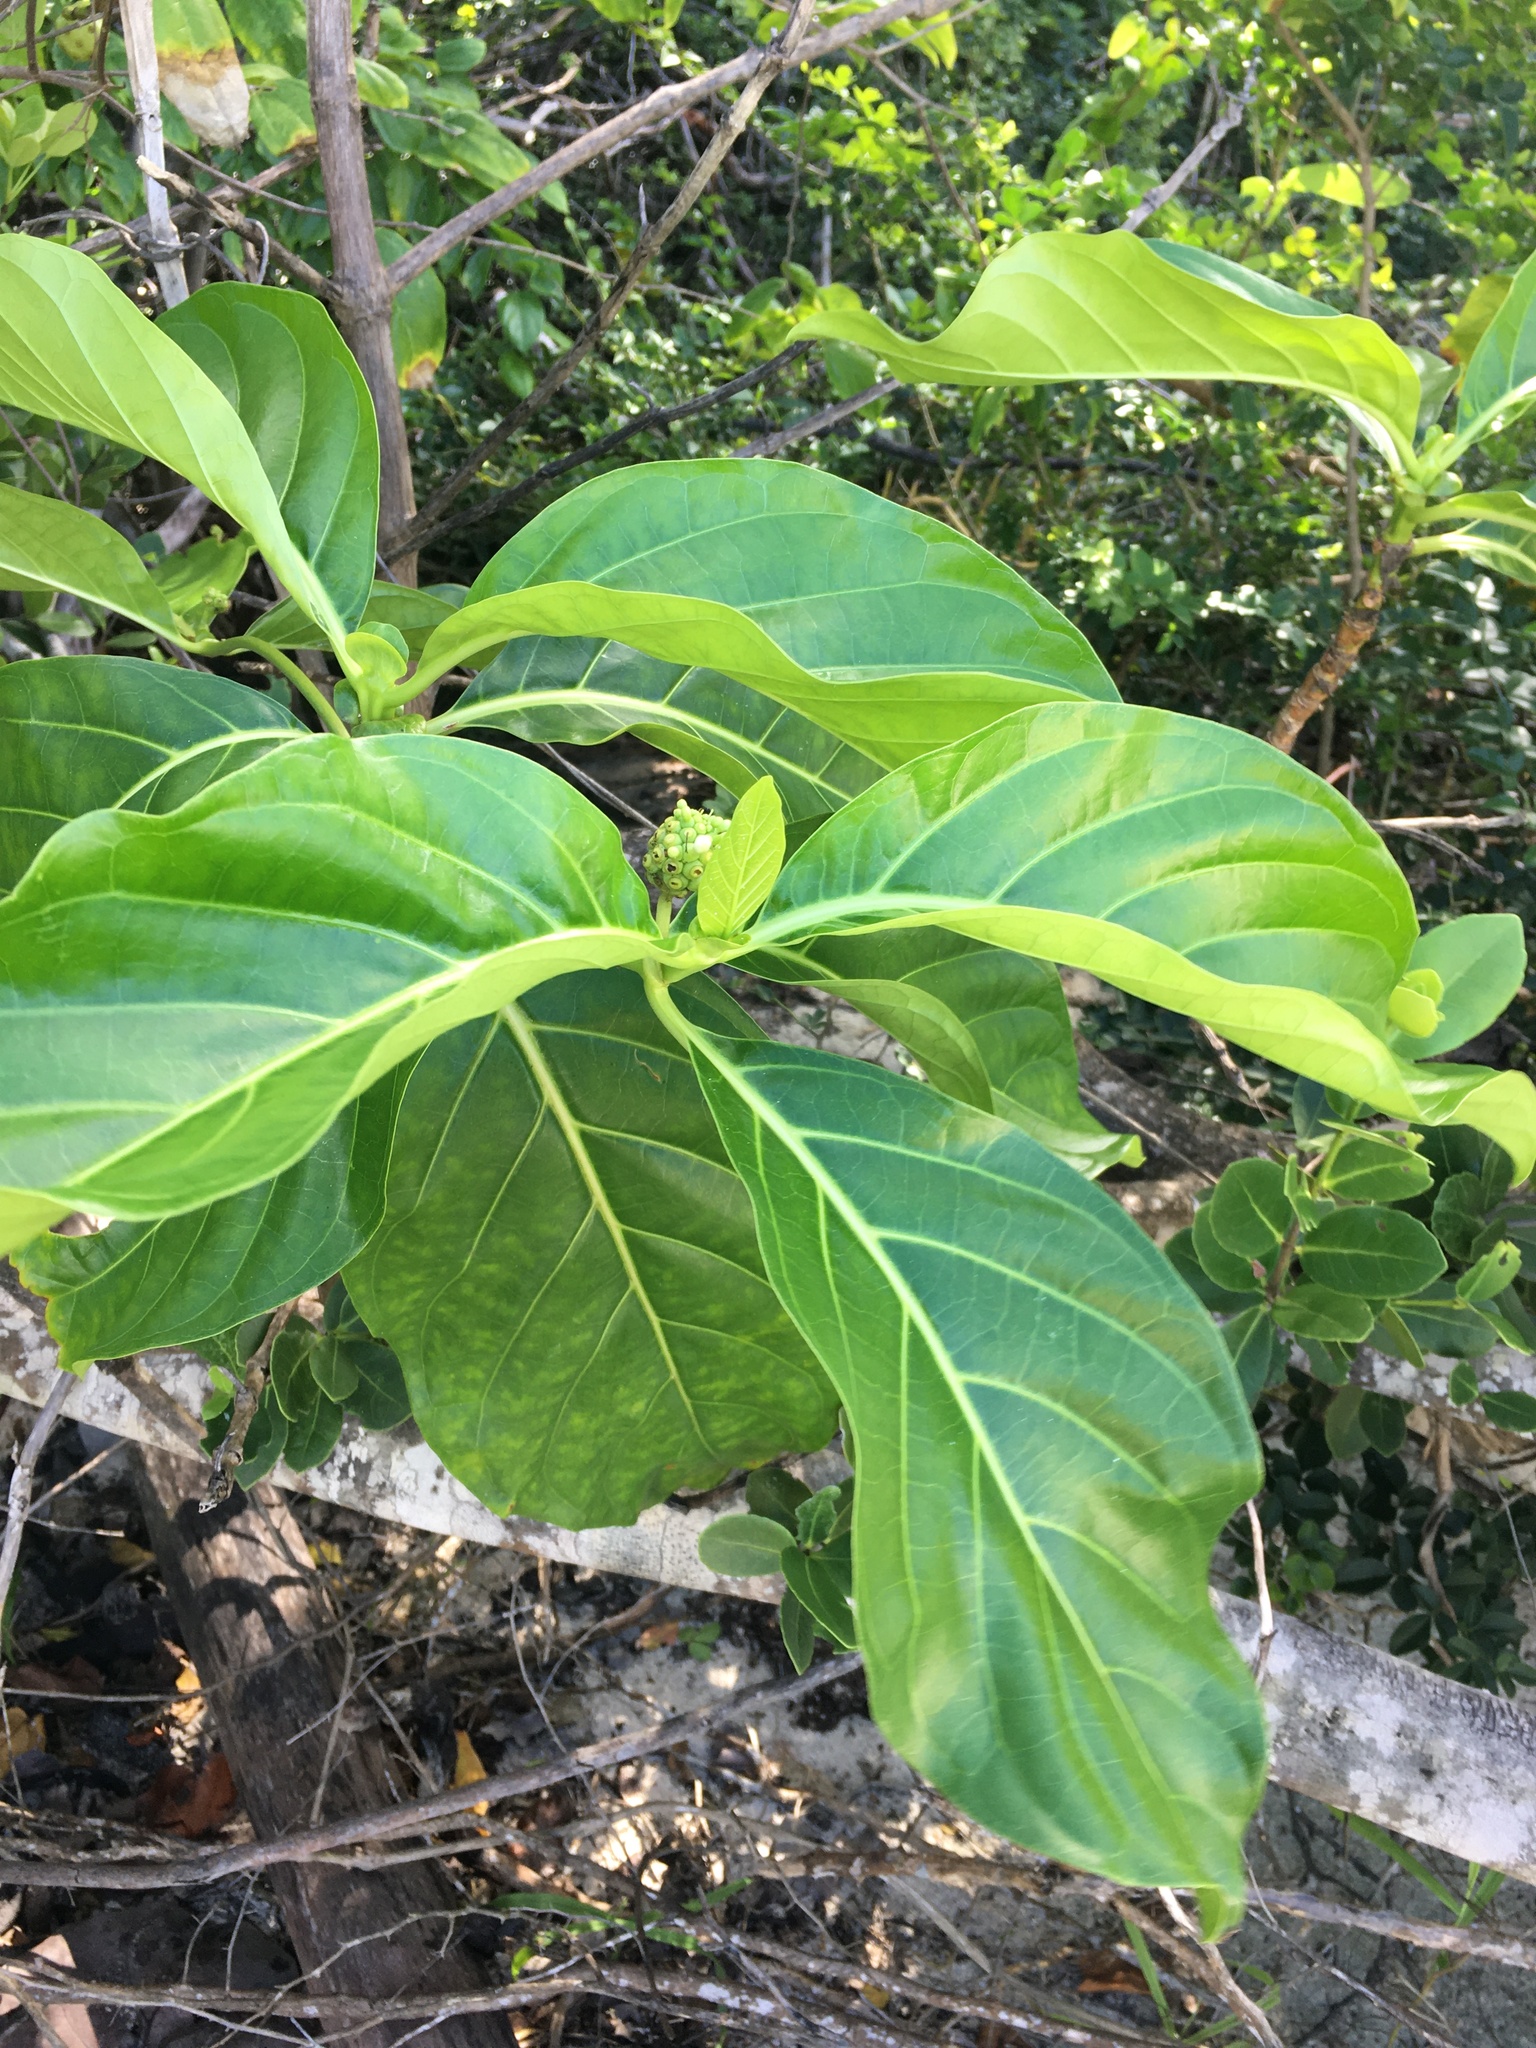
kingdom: Plantae
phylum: Tracheophyta
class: Magnoliopsida
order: Gentianales
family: Rubiaceae
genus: Morinda
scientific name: Morinda citrifolia
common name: Indian-mulberry
